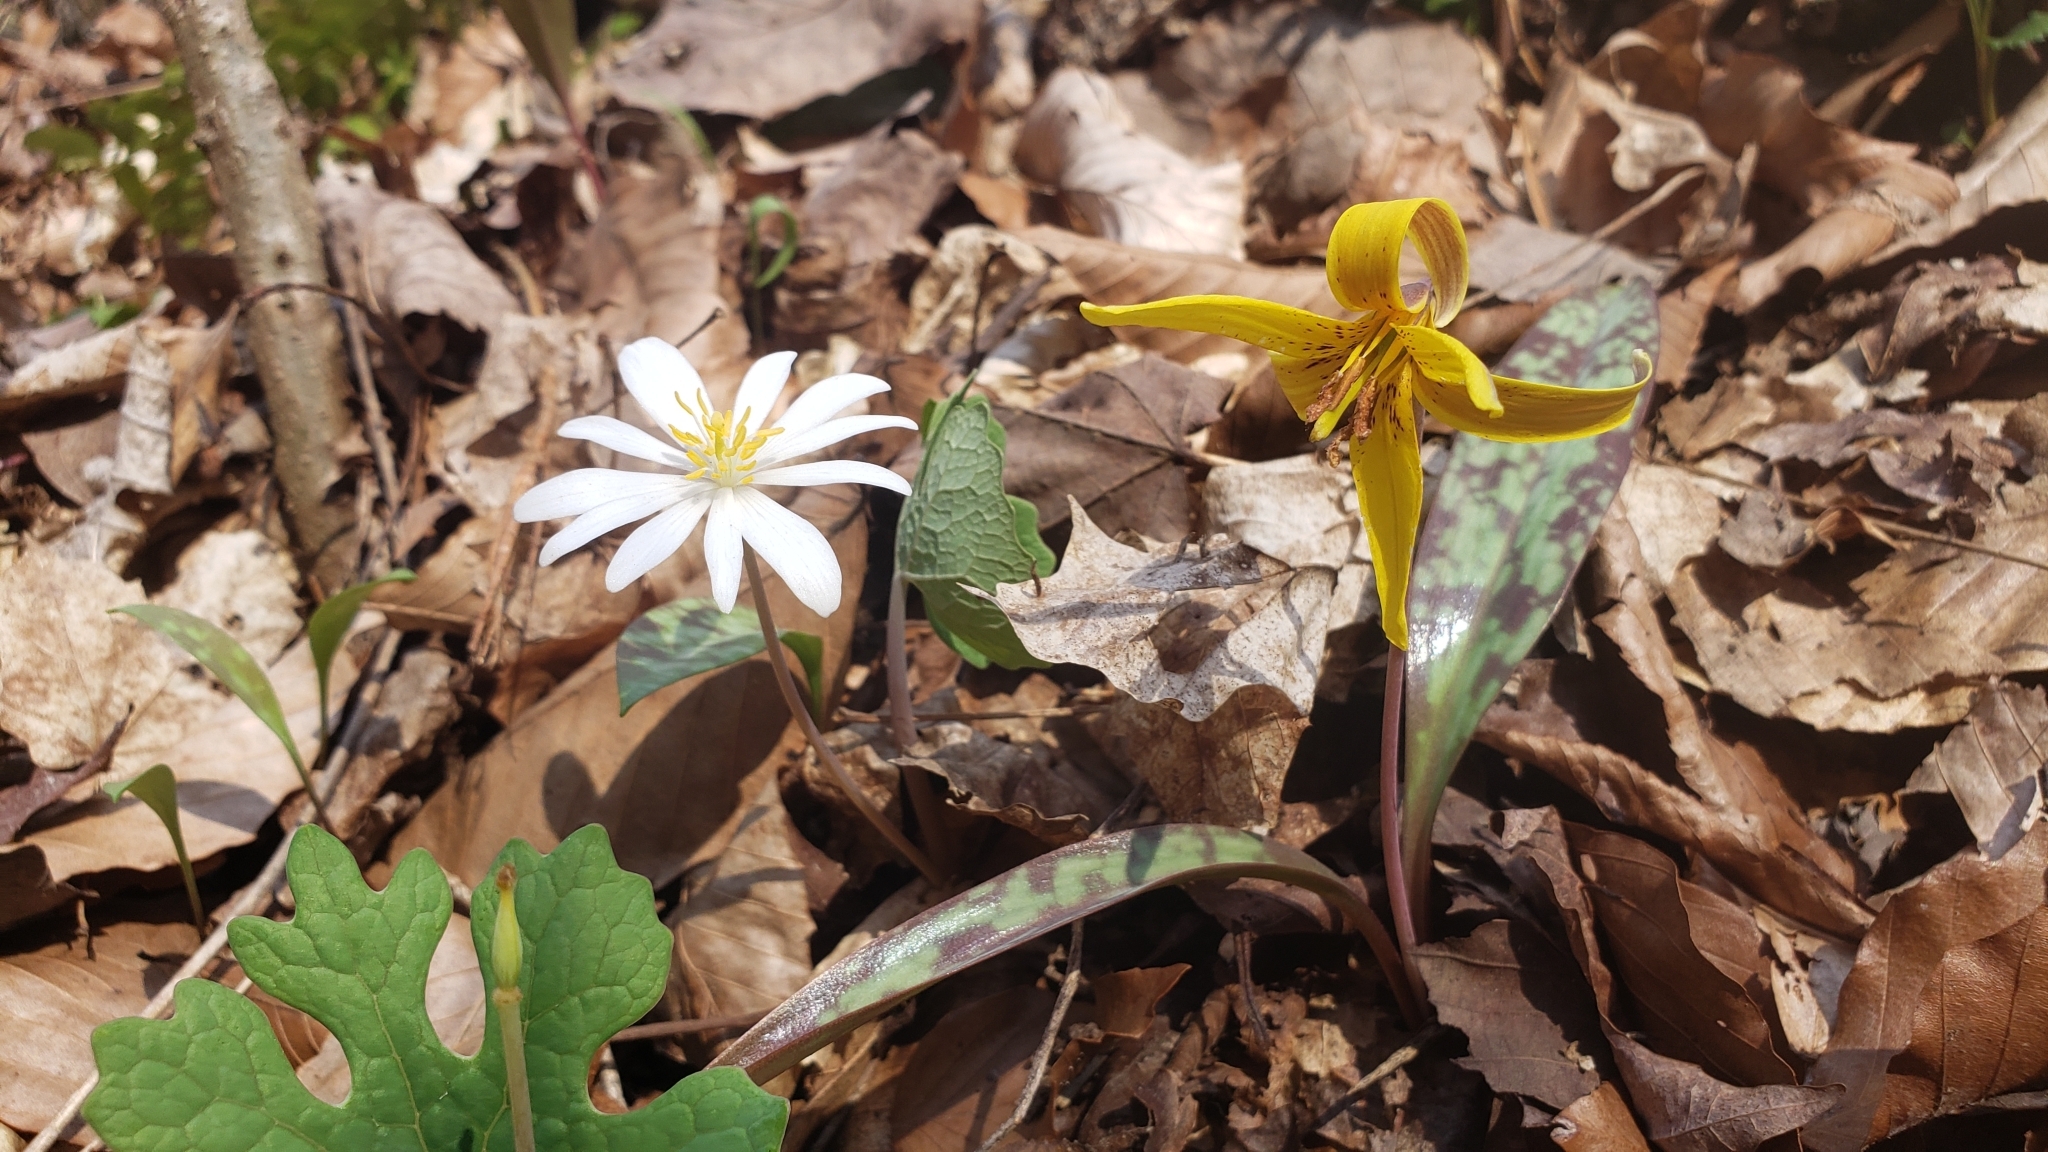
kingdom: Plantae
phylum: Tracheophyta
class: Magnoliopsida
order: Ranunculales
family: Papaveraceae
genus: Sanguinaria
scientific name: Sanguinaria canadensis
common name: Bloodroot
